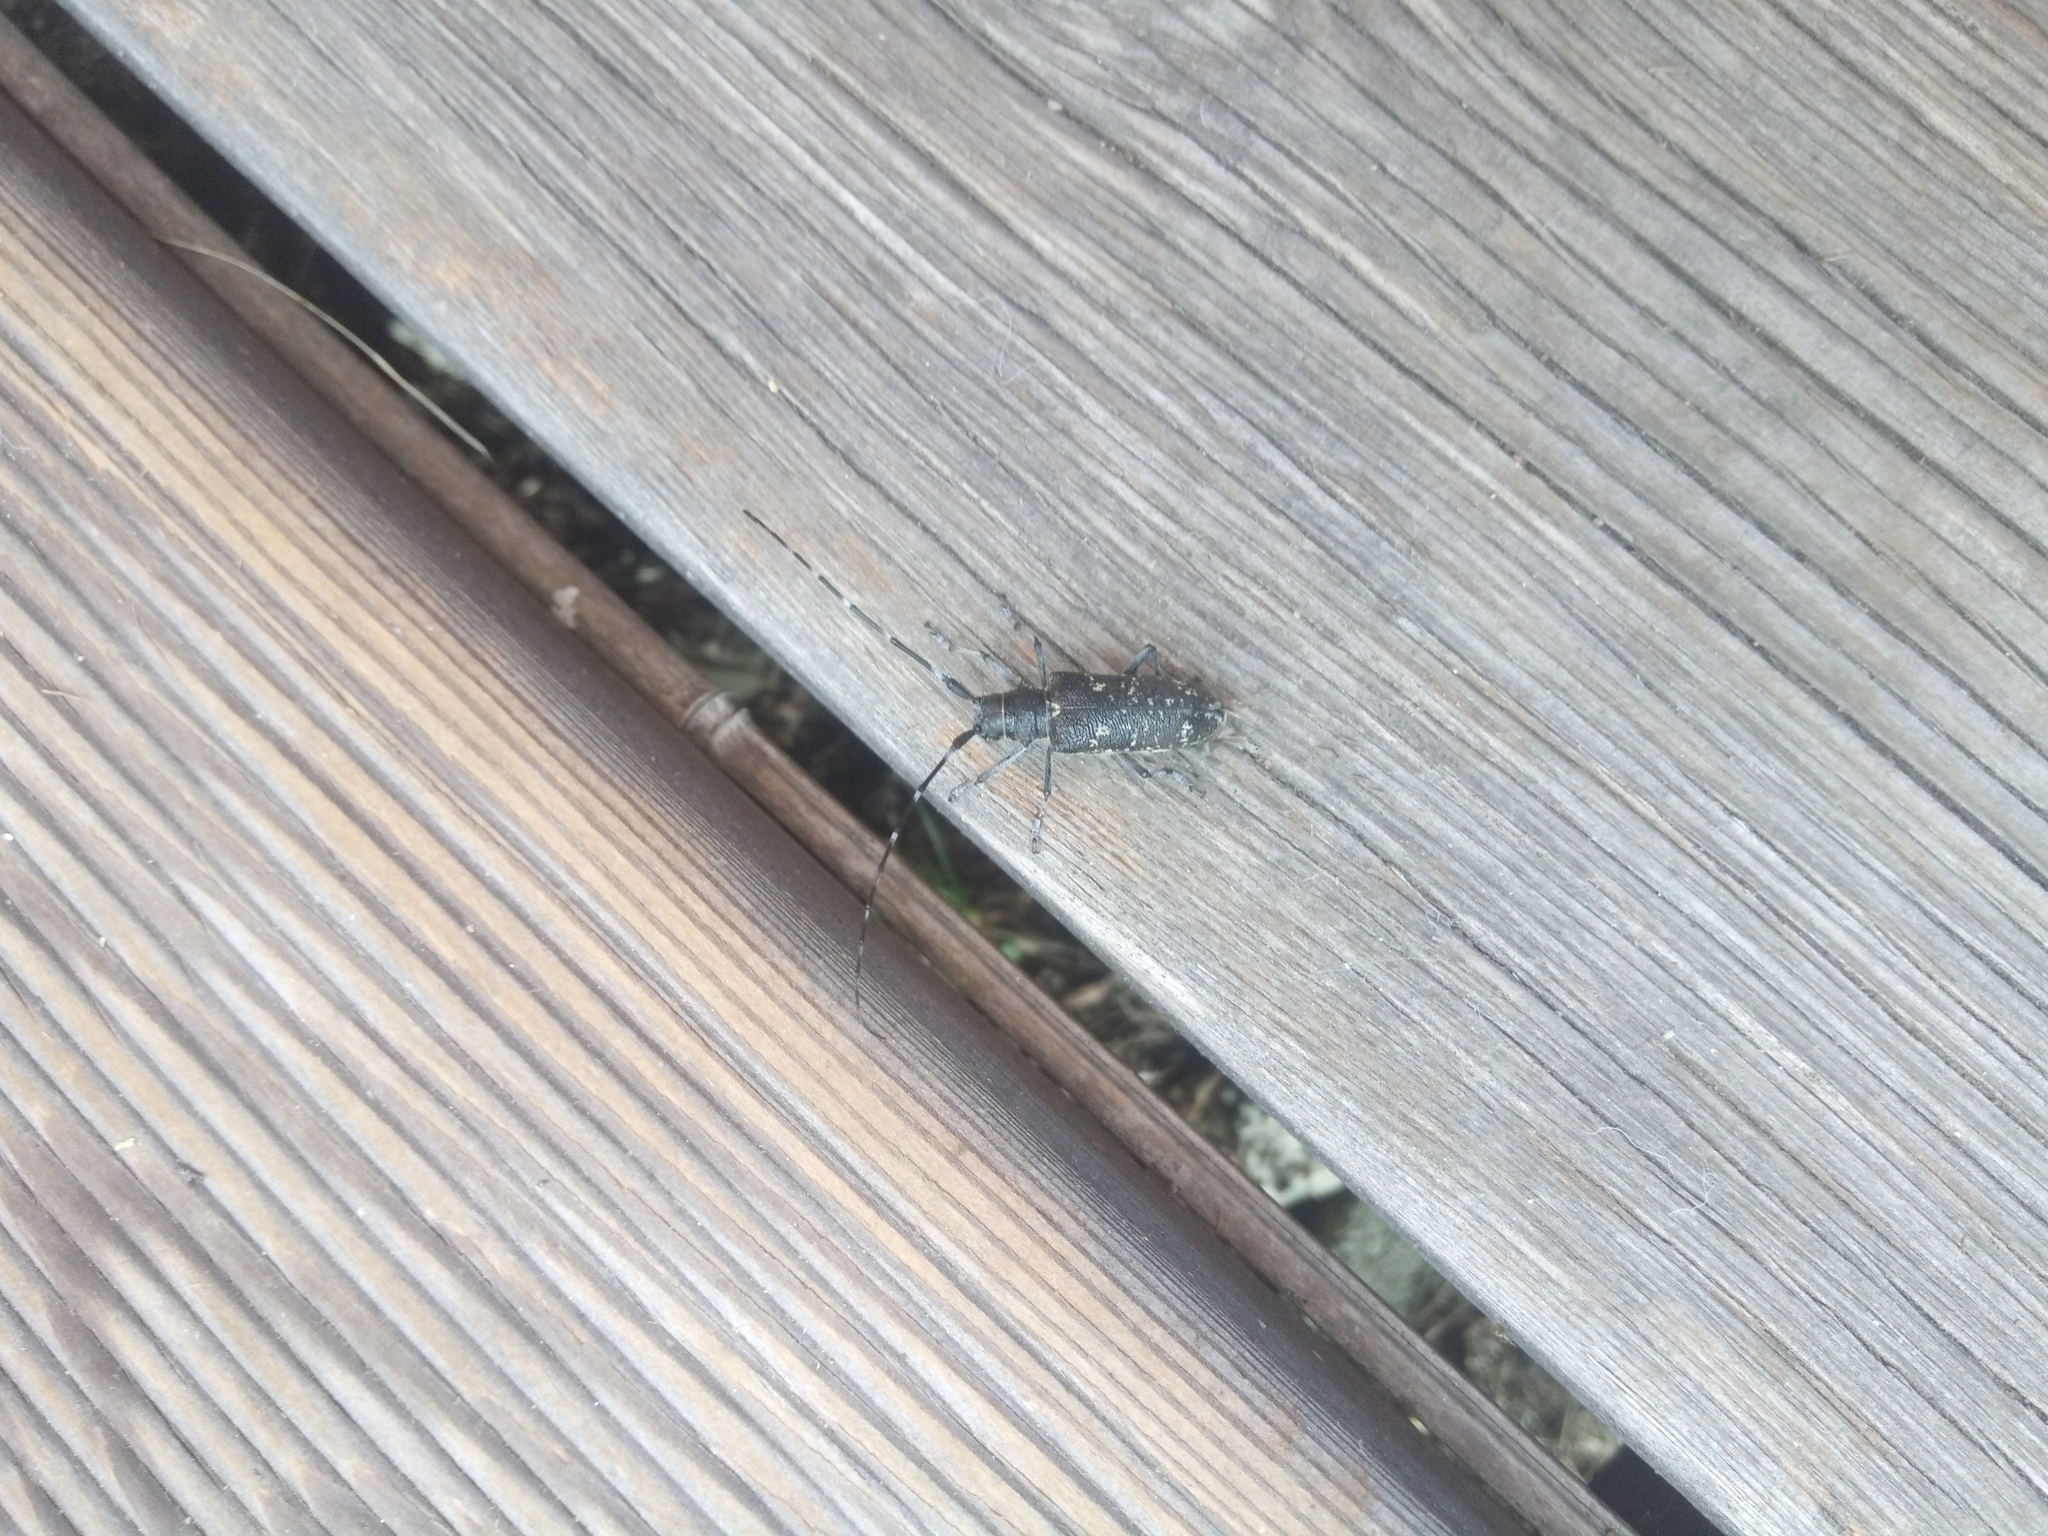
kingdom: Animalia
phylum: Arthropoda
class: Insecta
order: Coleoptera
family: Cerambycidae
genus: Monochamus
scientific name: Monochamus sutor
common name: Pine sawyer
